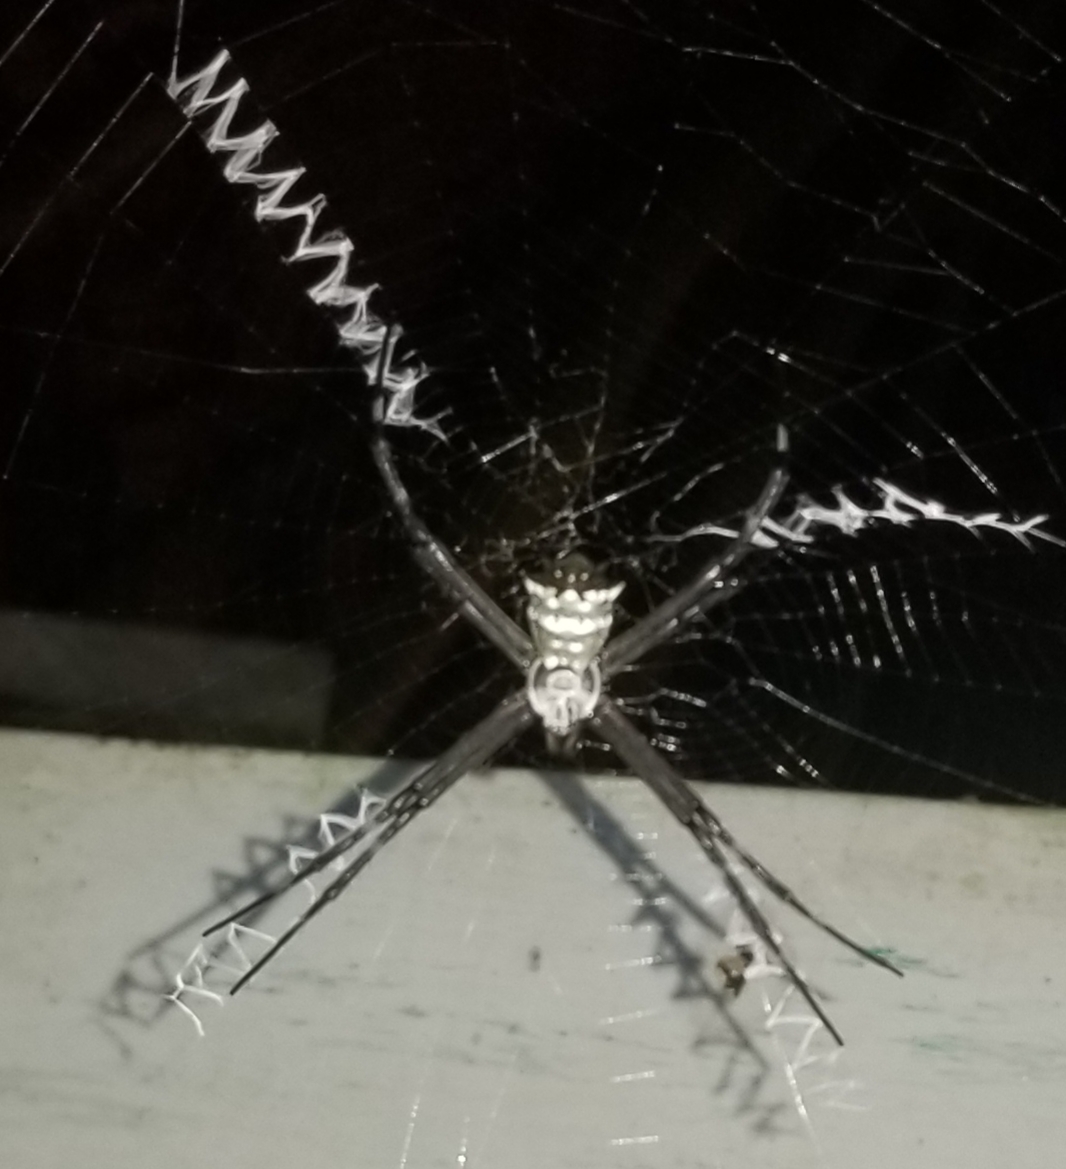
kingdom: Animalia
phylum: Arthropoda
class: Arachnida
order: Araneae
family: Araneidae
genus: Argiope
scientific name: Argiope submaronica
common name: Orb weavers
